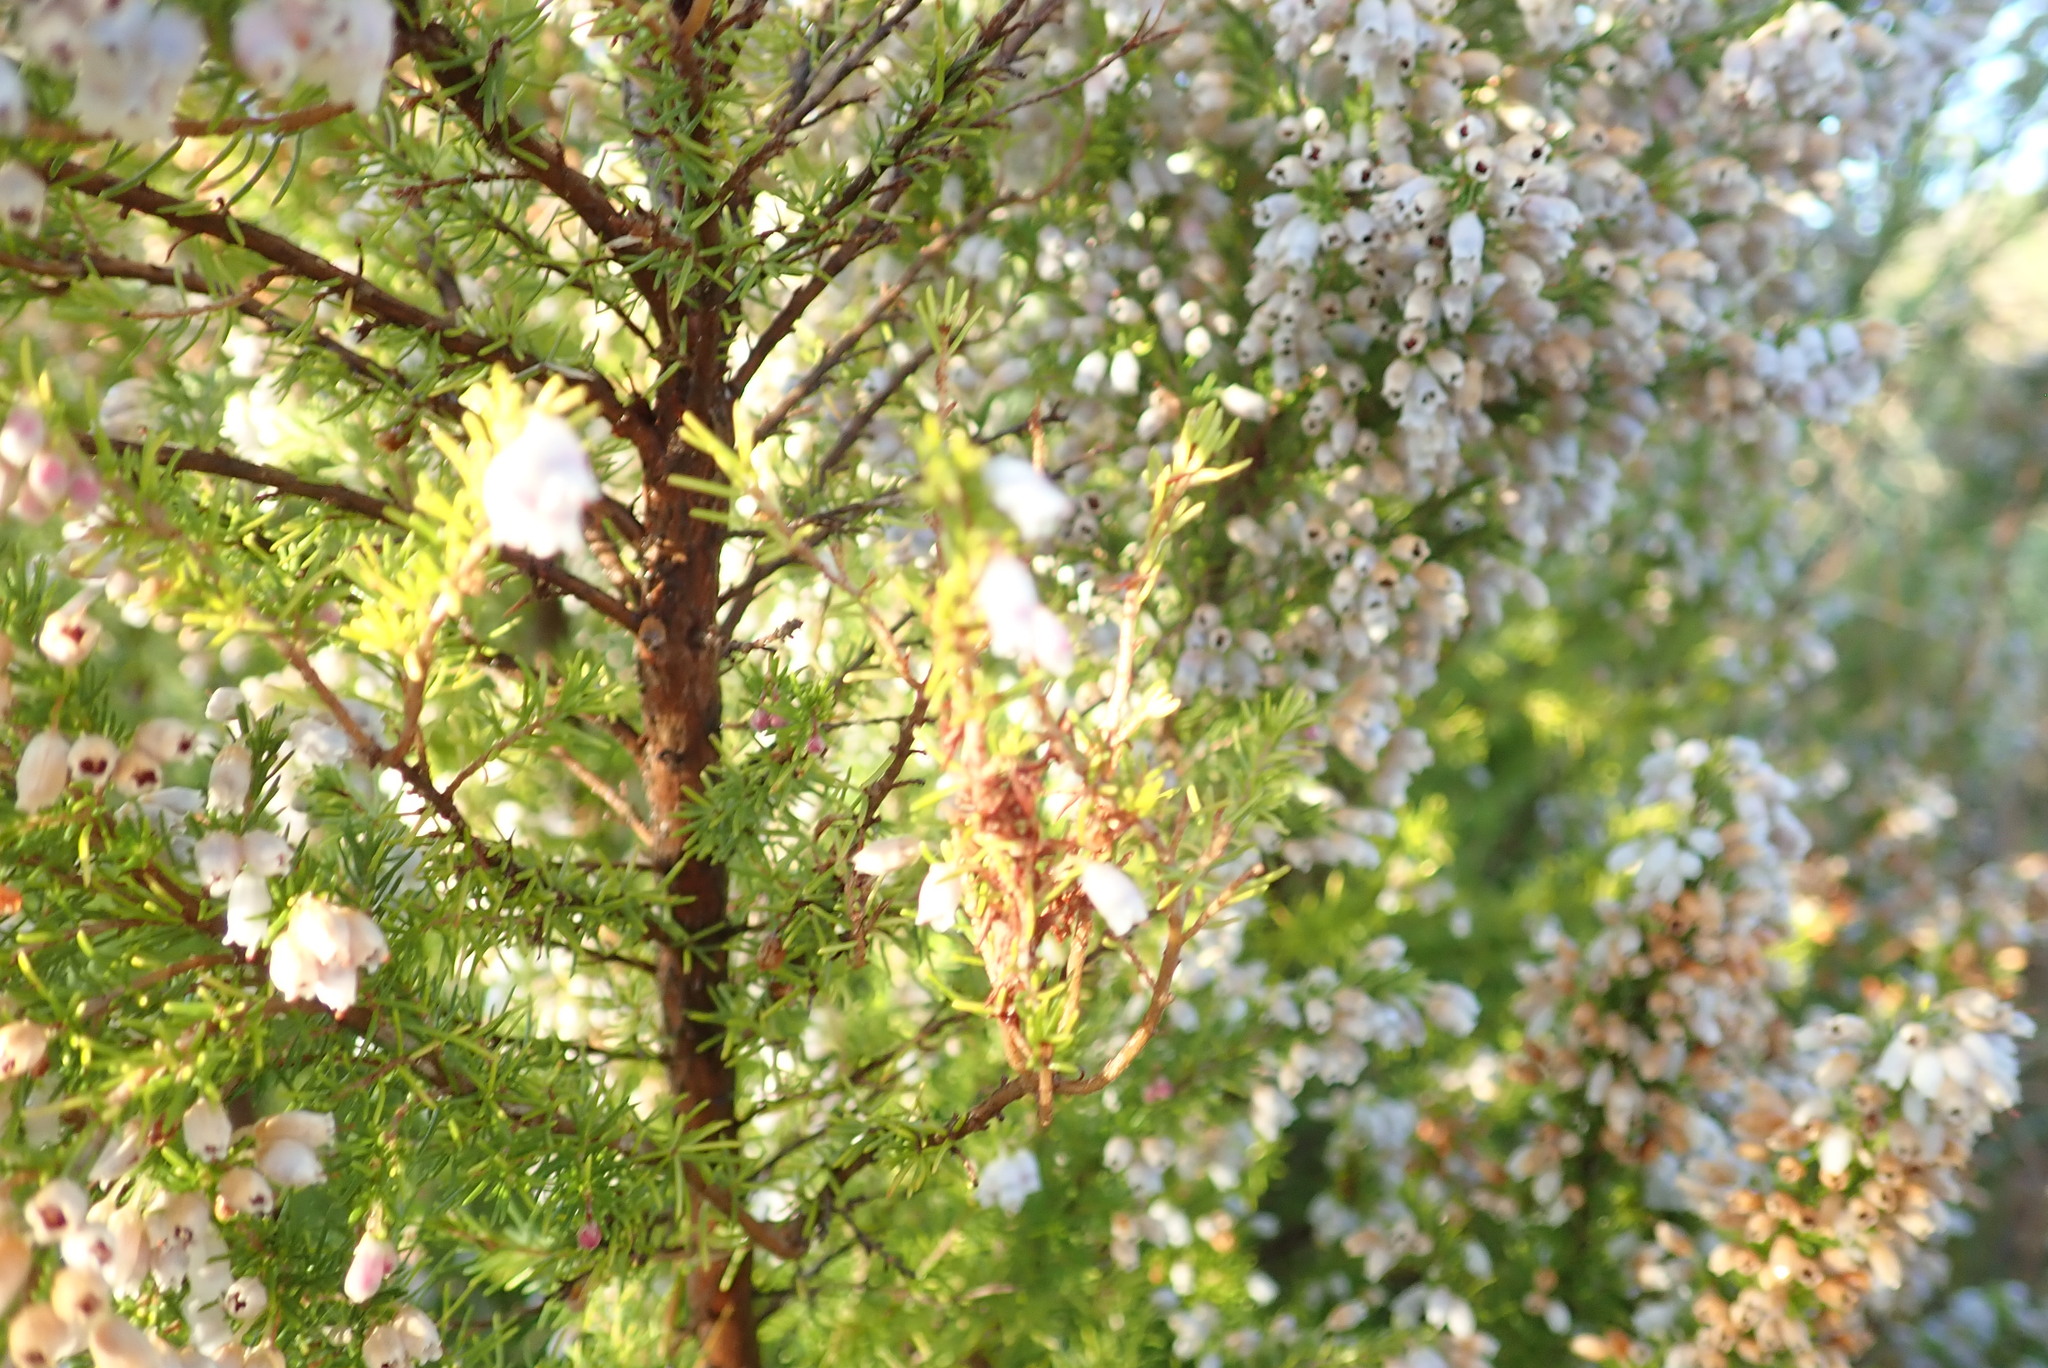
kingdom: Plantae
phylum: Tracheophyta
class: Magnoliopsida
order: Ericales
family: Ericaceae
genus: Erica
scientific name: Erica lusitanica
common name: Spanish heath
